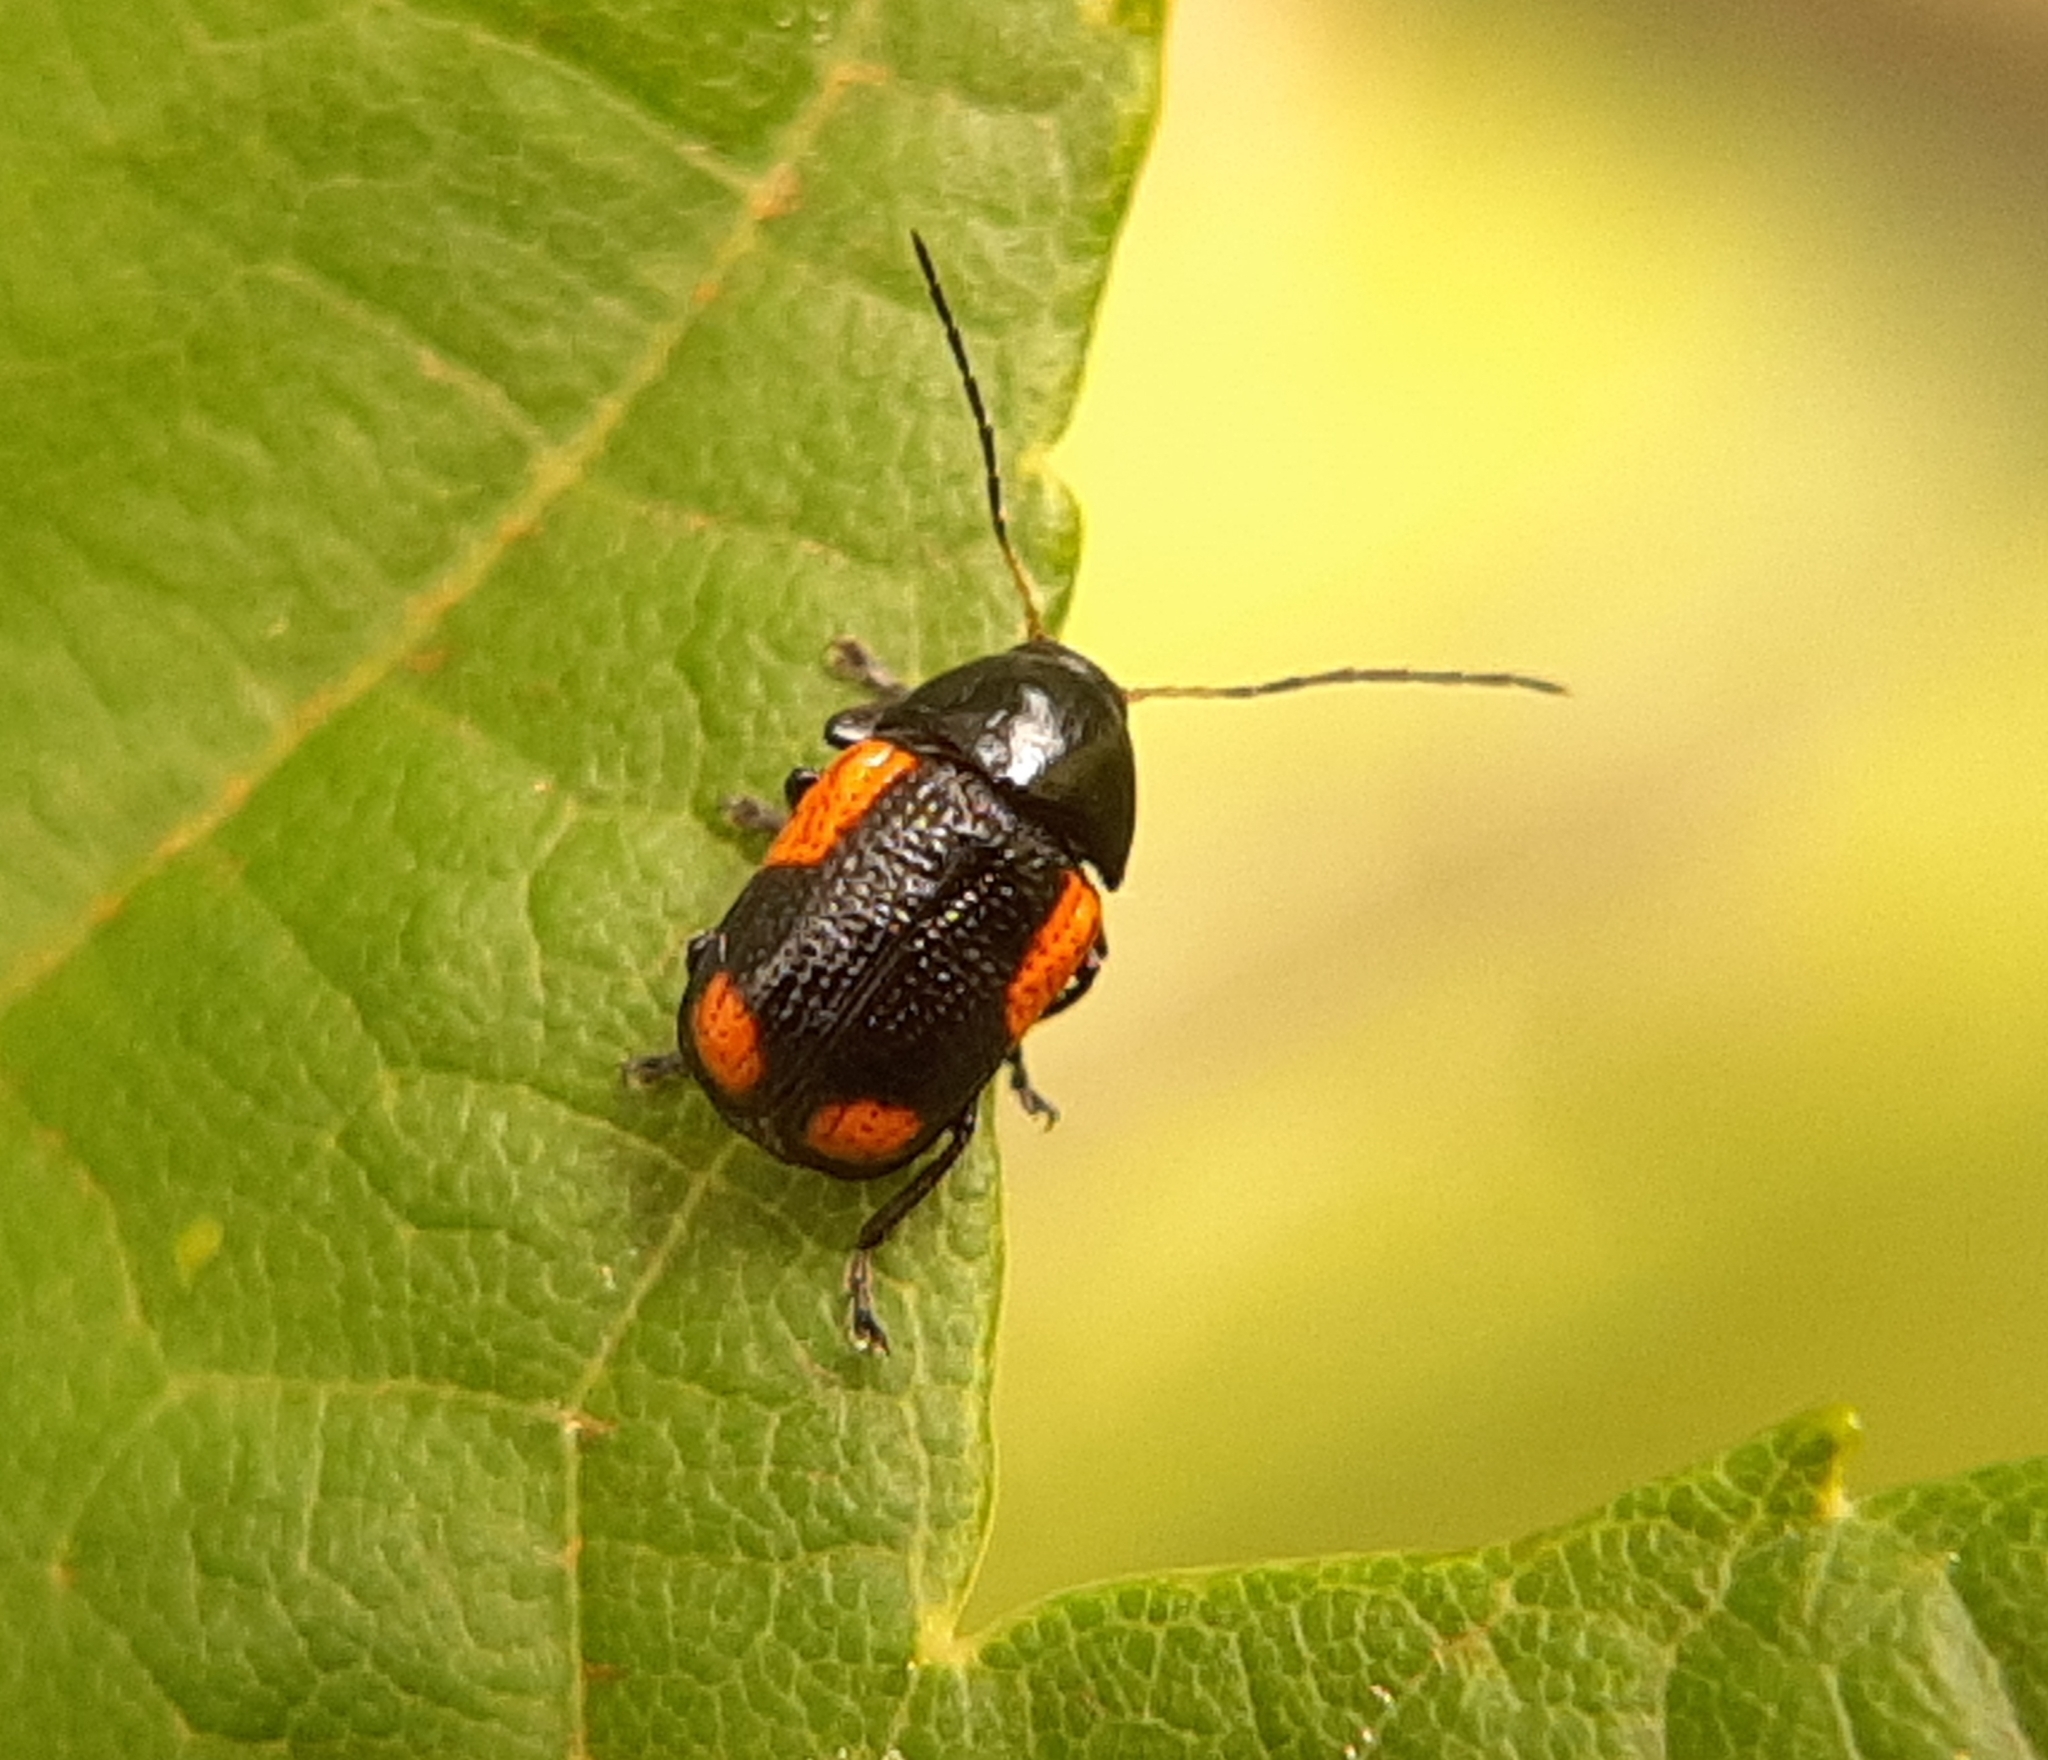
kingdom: Animalia
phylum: Arthropoda
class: Insecta
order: Coleoptera
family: Chrysomelidae
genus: Cryptocephalus
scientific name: Cryptocephalus notatus
